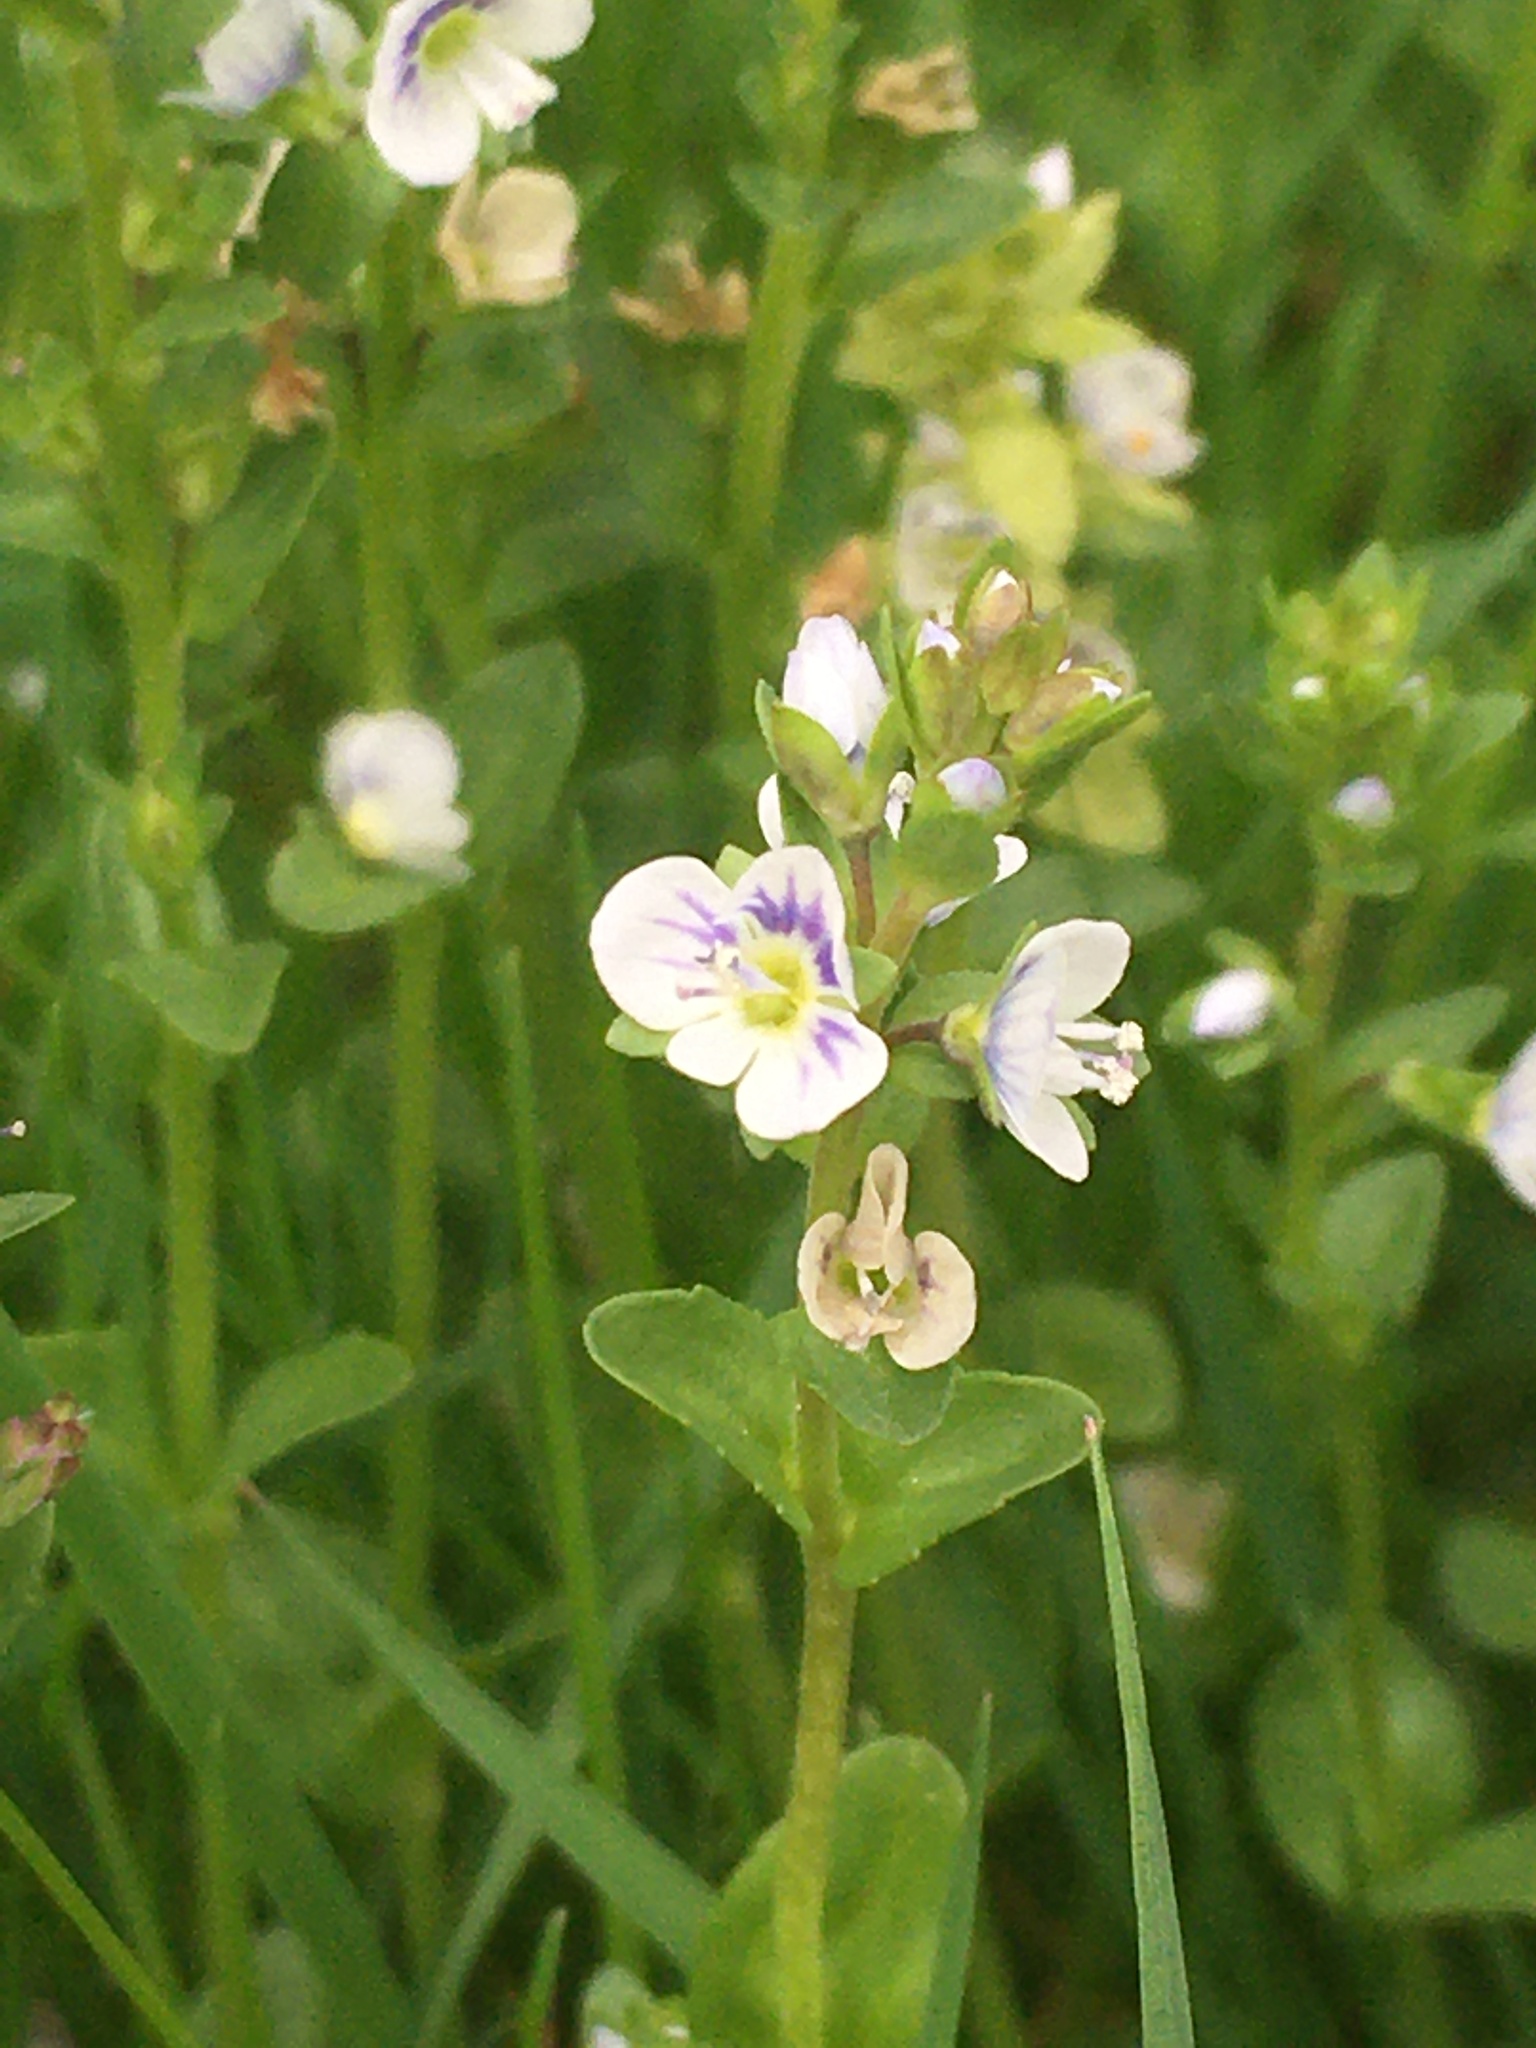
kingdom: Plantae
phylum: Tracheophyta
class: Magnoliopsida
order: Lamiales
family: Plantaginaceae
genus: Veronica
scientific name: Veronica serpyllifolia
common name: Thyme-leaved speedwell
